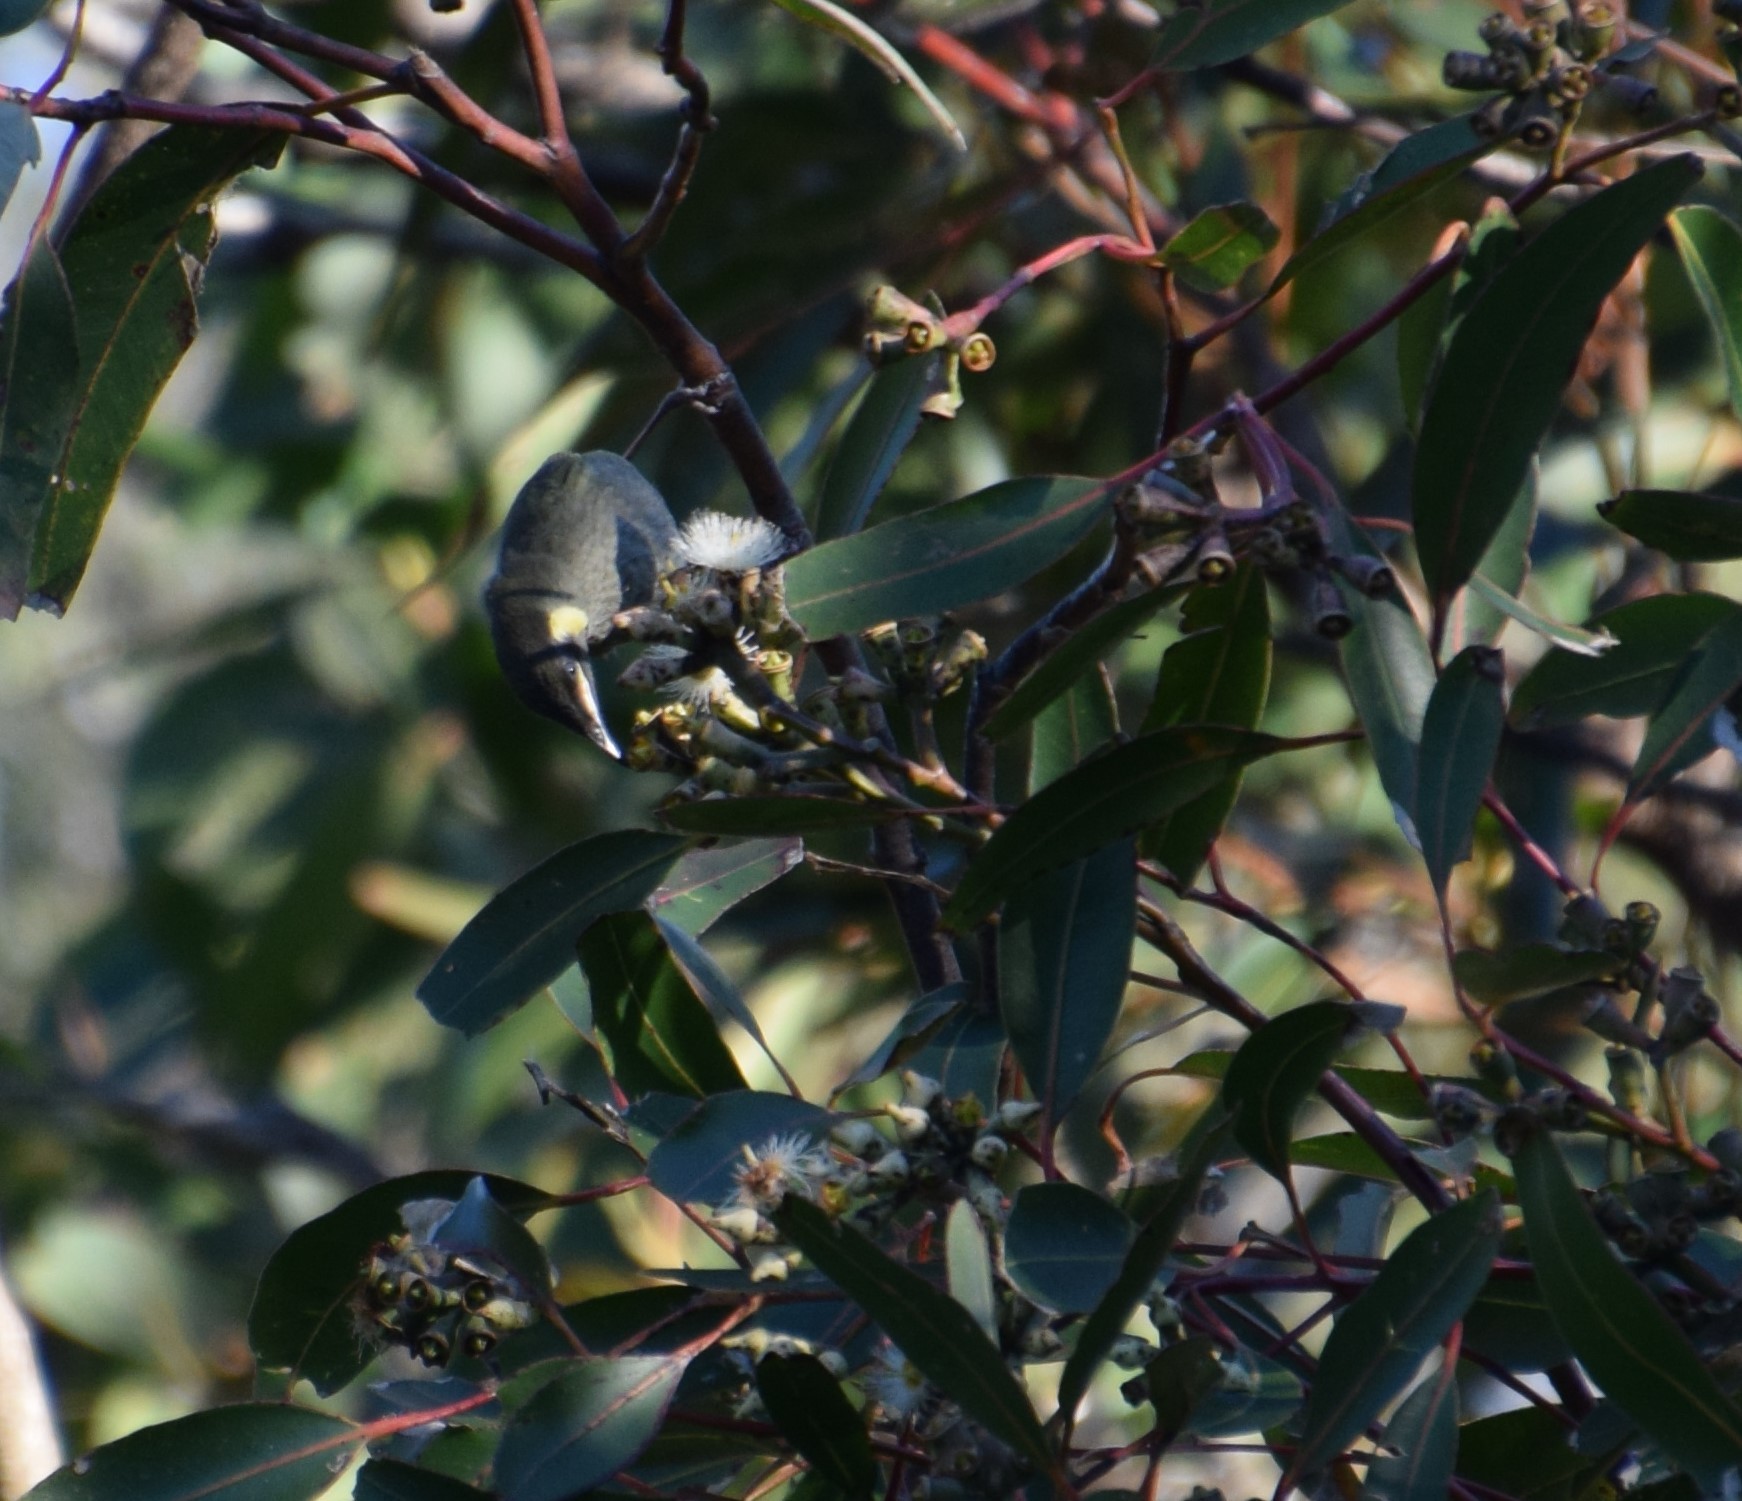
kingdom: Animalia
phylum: Chordata
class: Aves
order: Passeriformes
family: Meliphagidae
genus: Meliphaga
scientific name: Meliphaga lewinii
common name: Lewin's honeyeater
